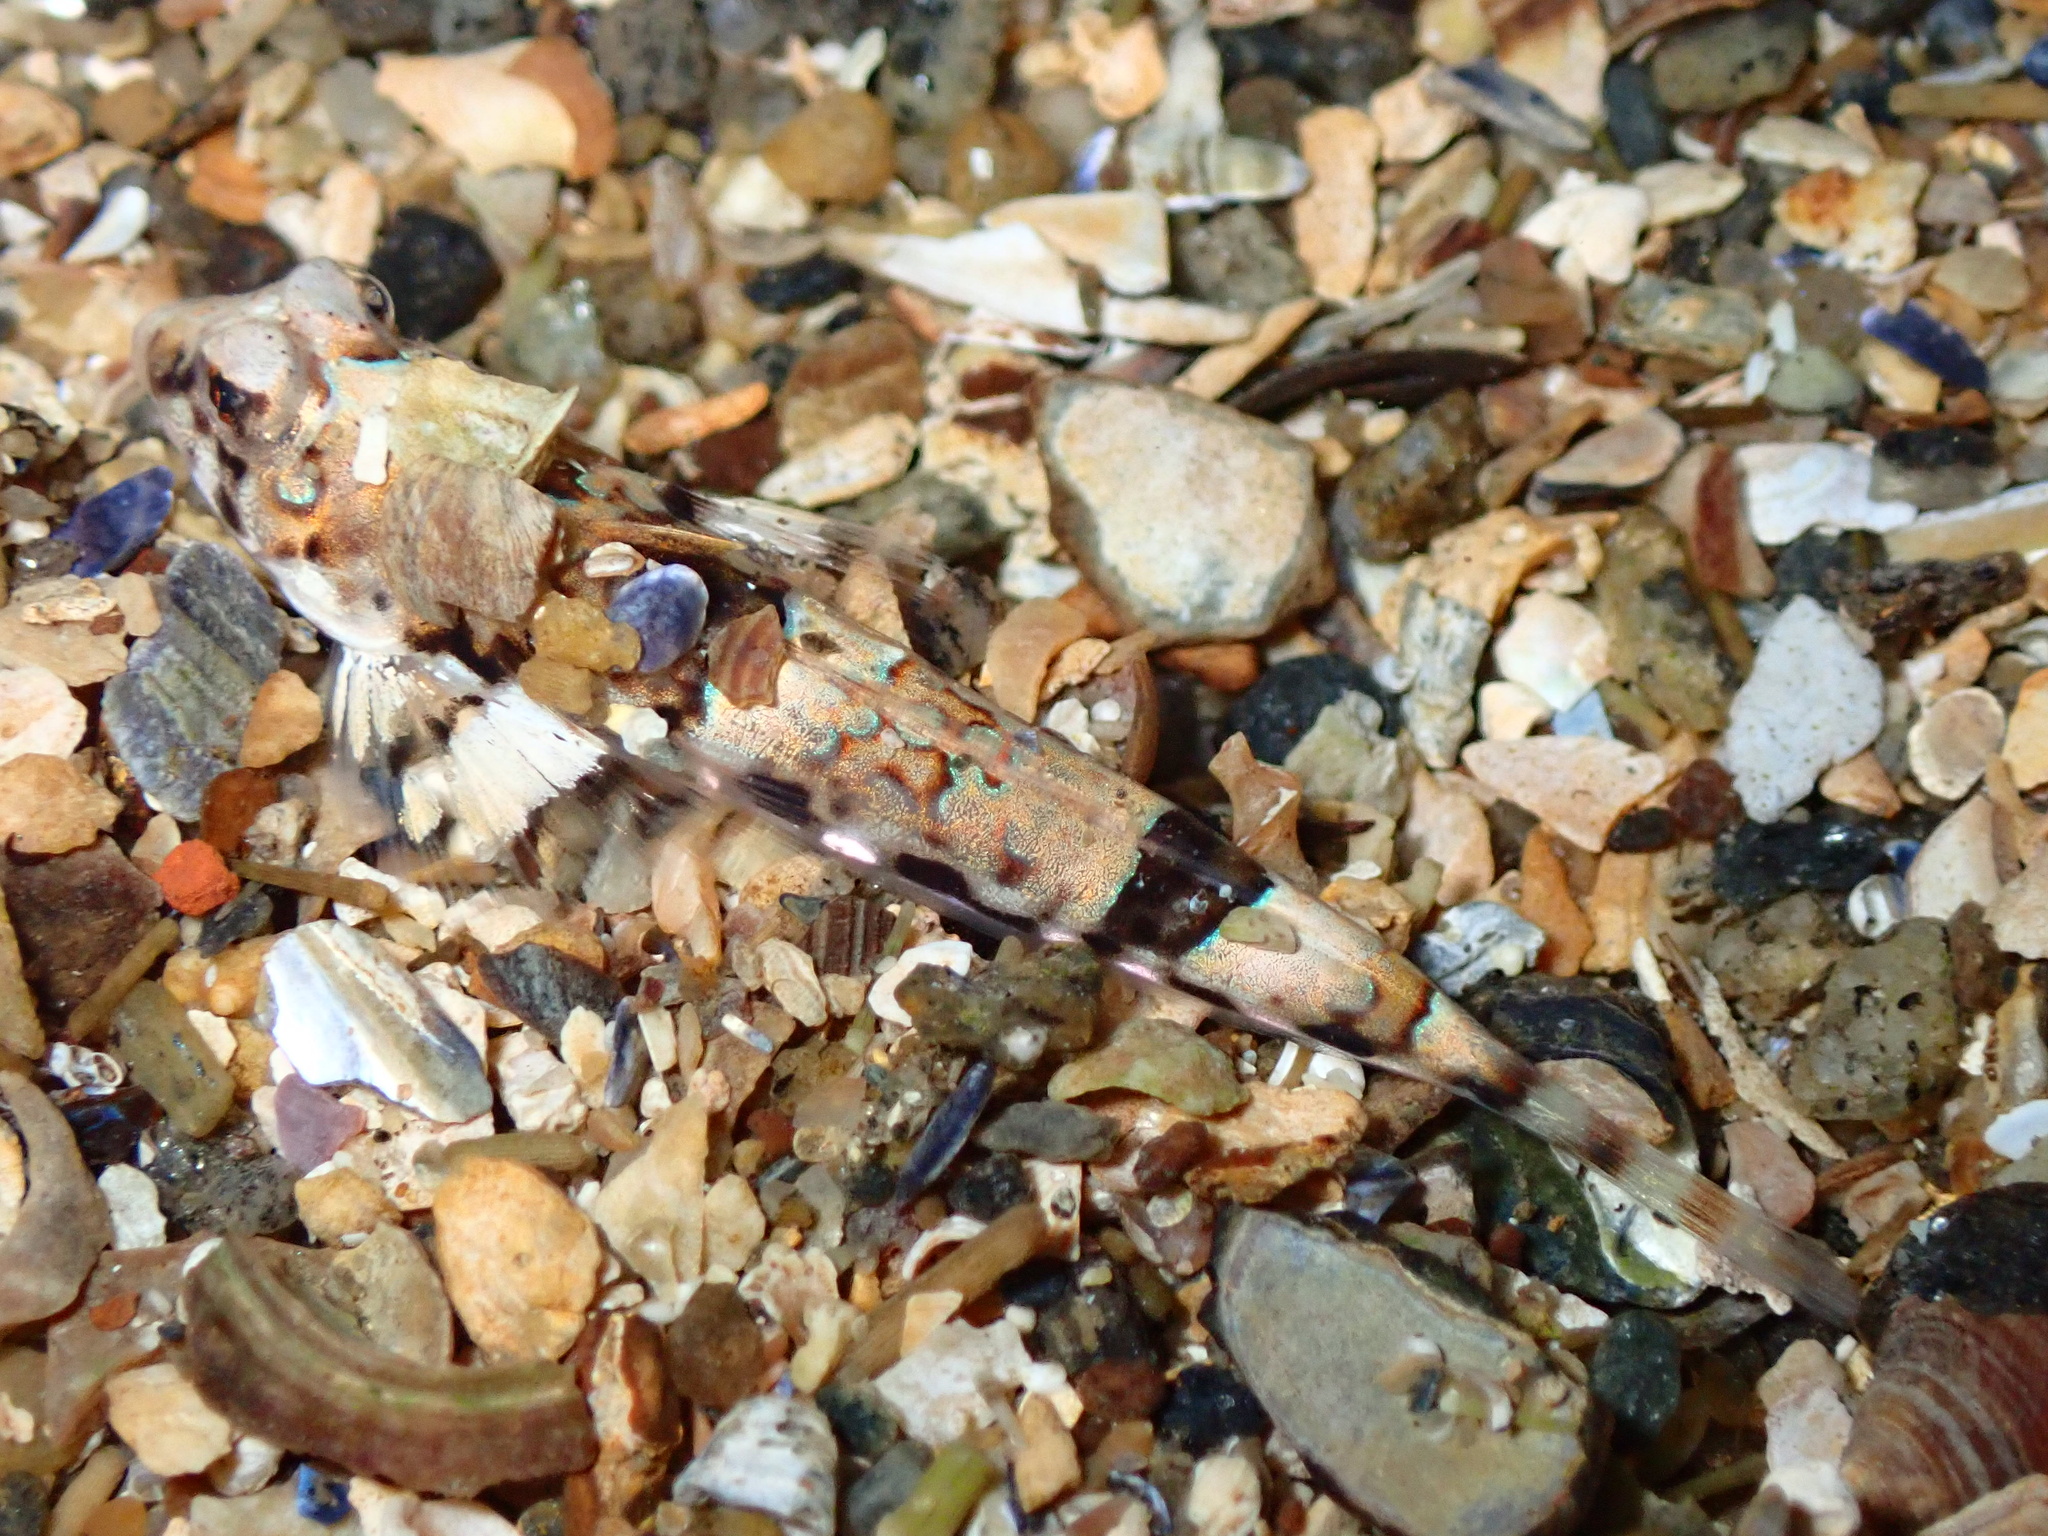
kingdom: Animalia
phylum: Chordata
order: Perciformes
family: Callionymidae
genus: Callionymus
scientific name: Callionymus lyra
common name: Dragonet
